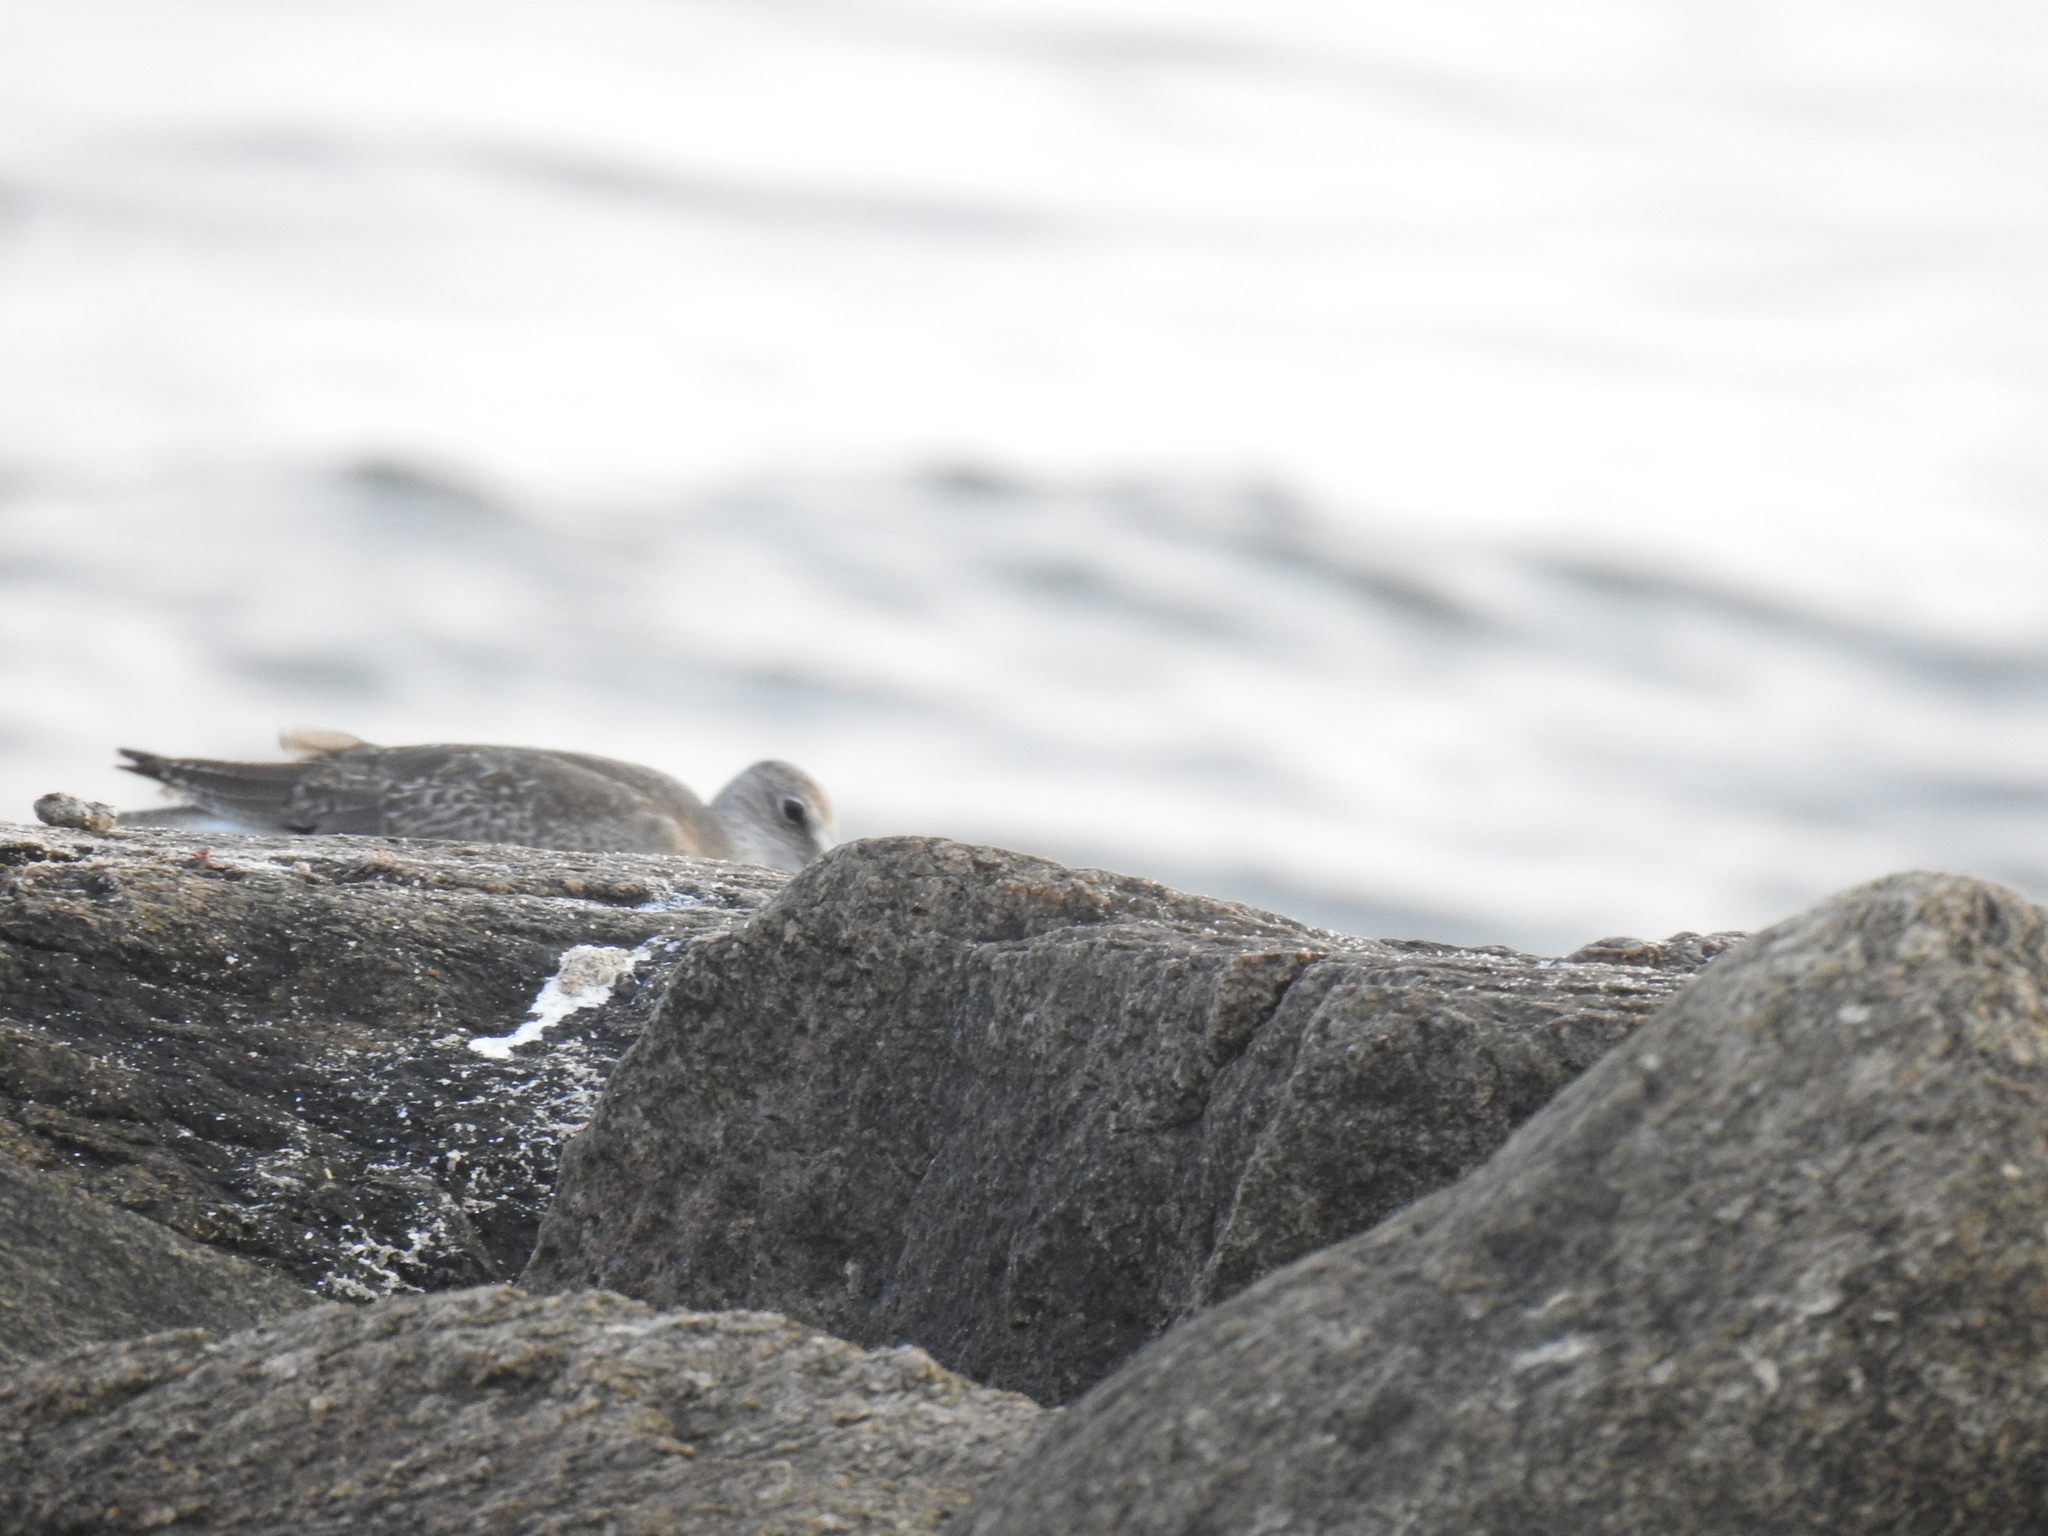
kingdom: Animalia
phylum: Chordata
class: Aves
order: Charadriiformes
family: Scolopacidae
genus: Tringa
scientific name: Tringa semipalmata
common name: Willet
